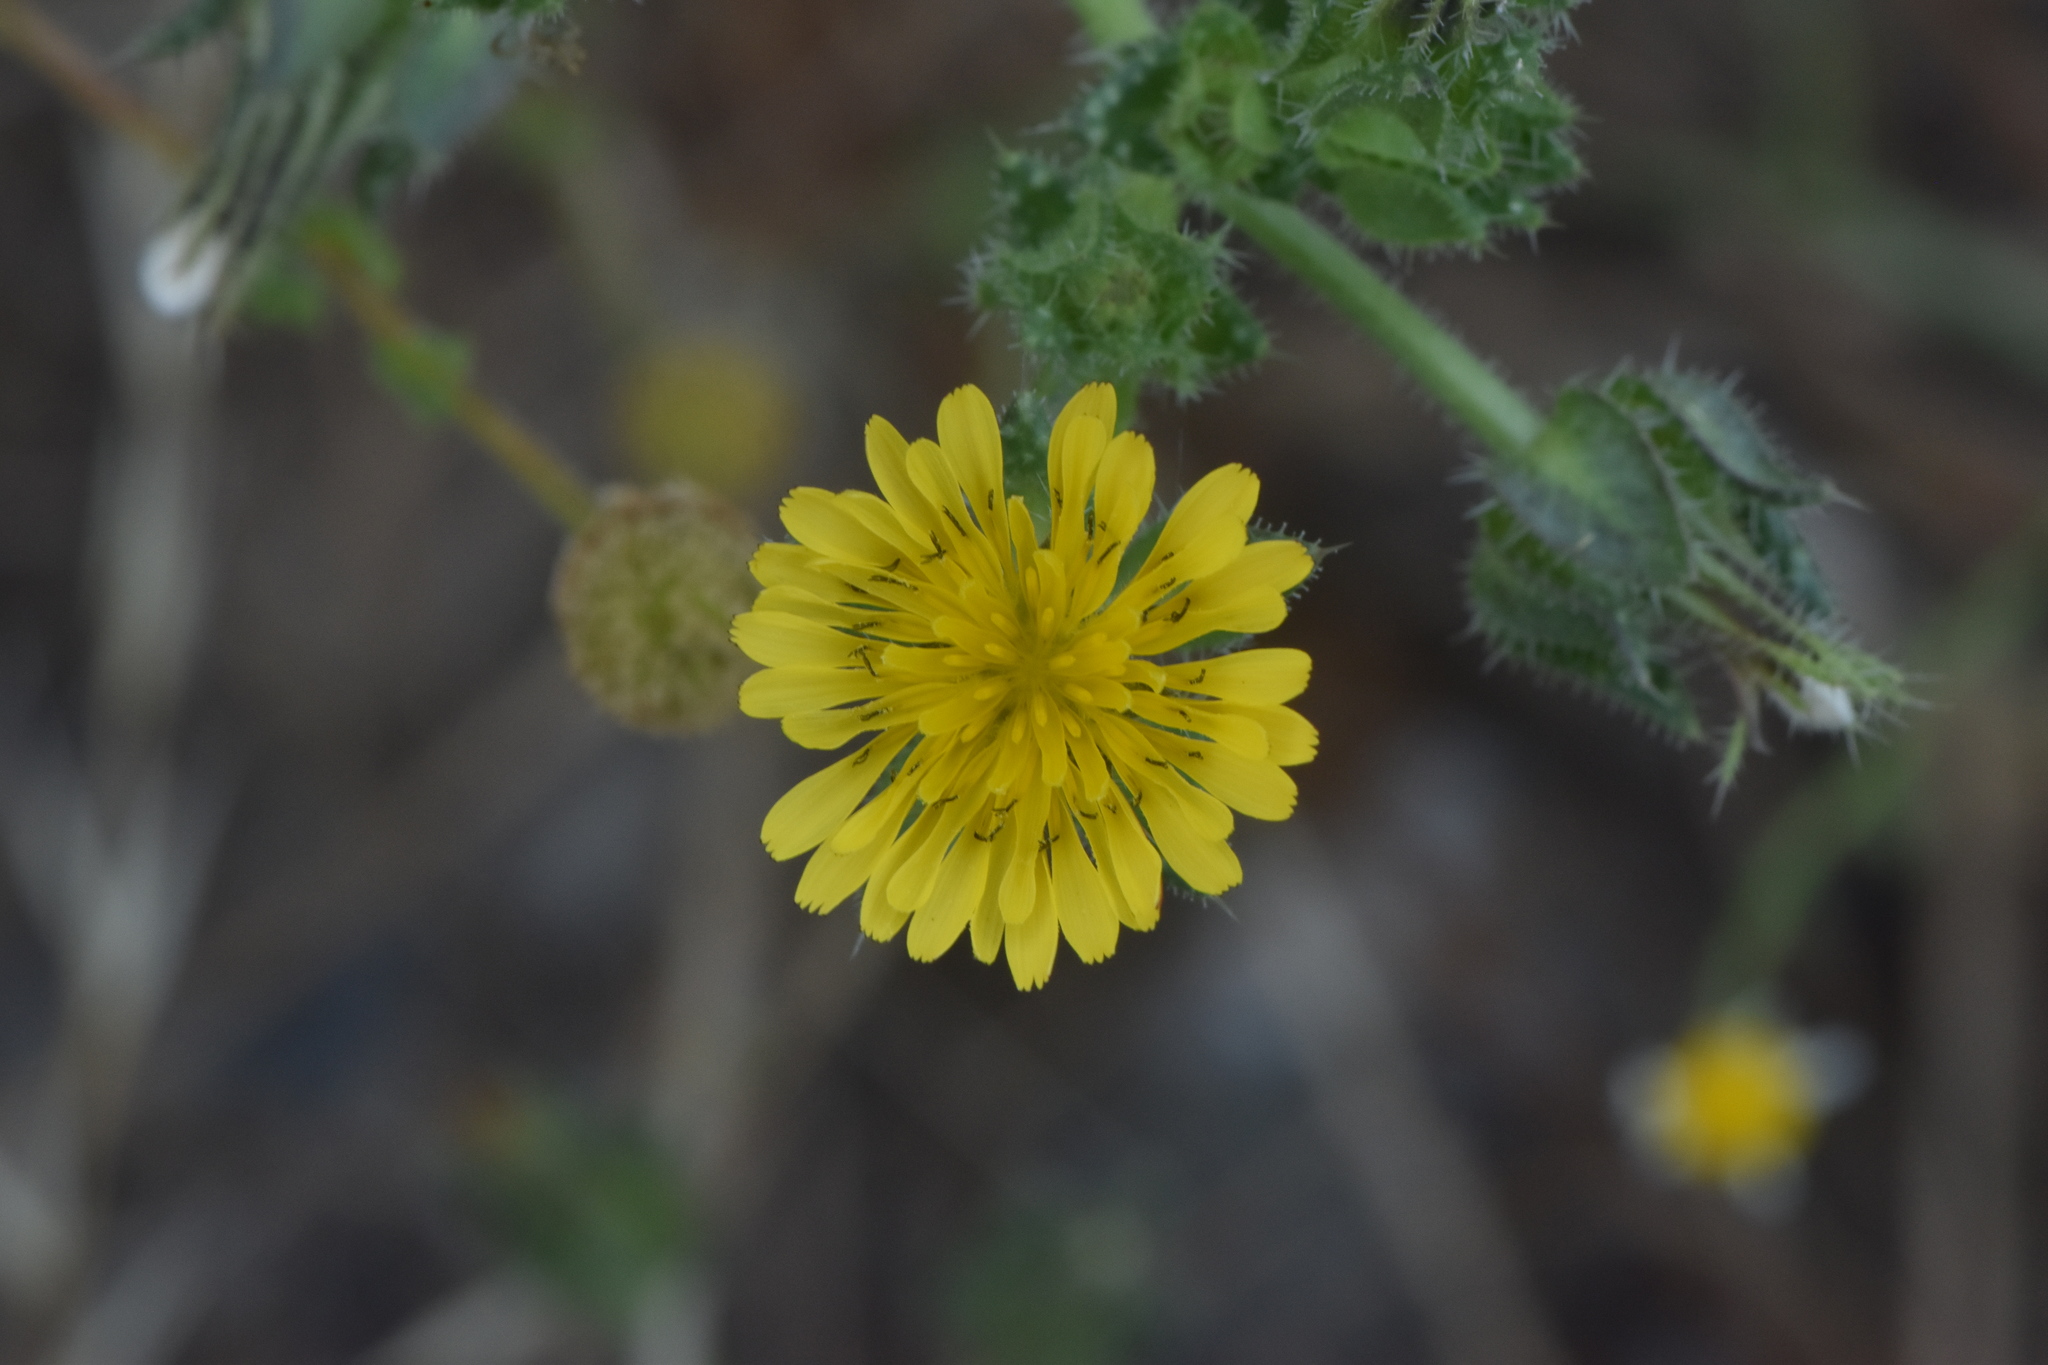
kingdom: Plantae
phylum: Tracheophyta
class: Magnoliopsida
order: Asterales
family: Asteraceae
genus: Helminthotheca
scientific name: Helminthotheca echioides
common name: Ox-tongue
